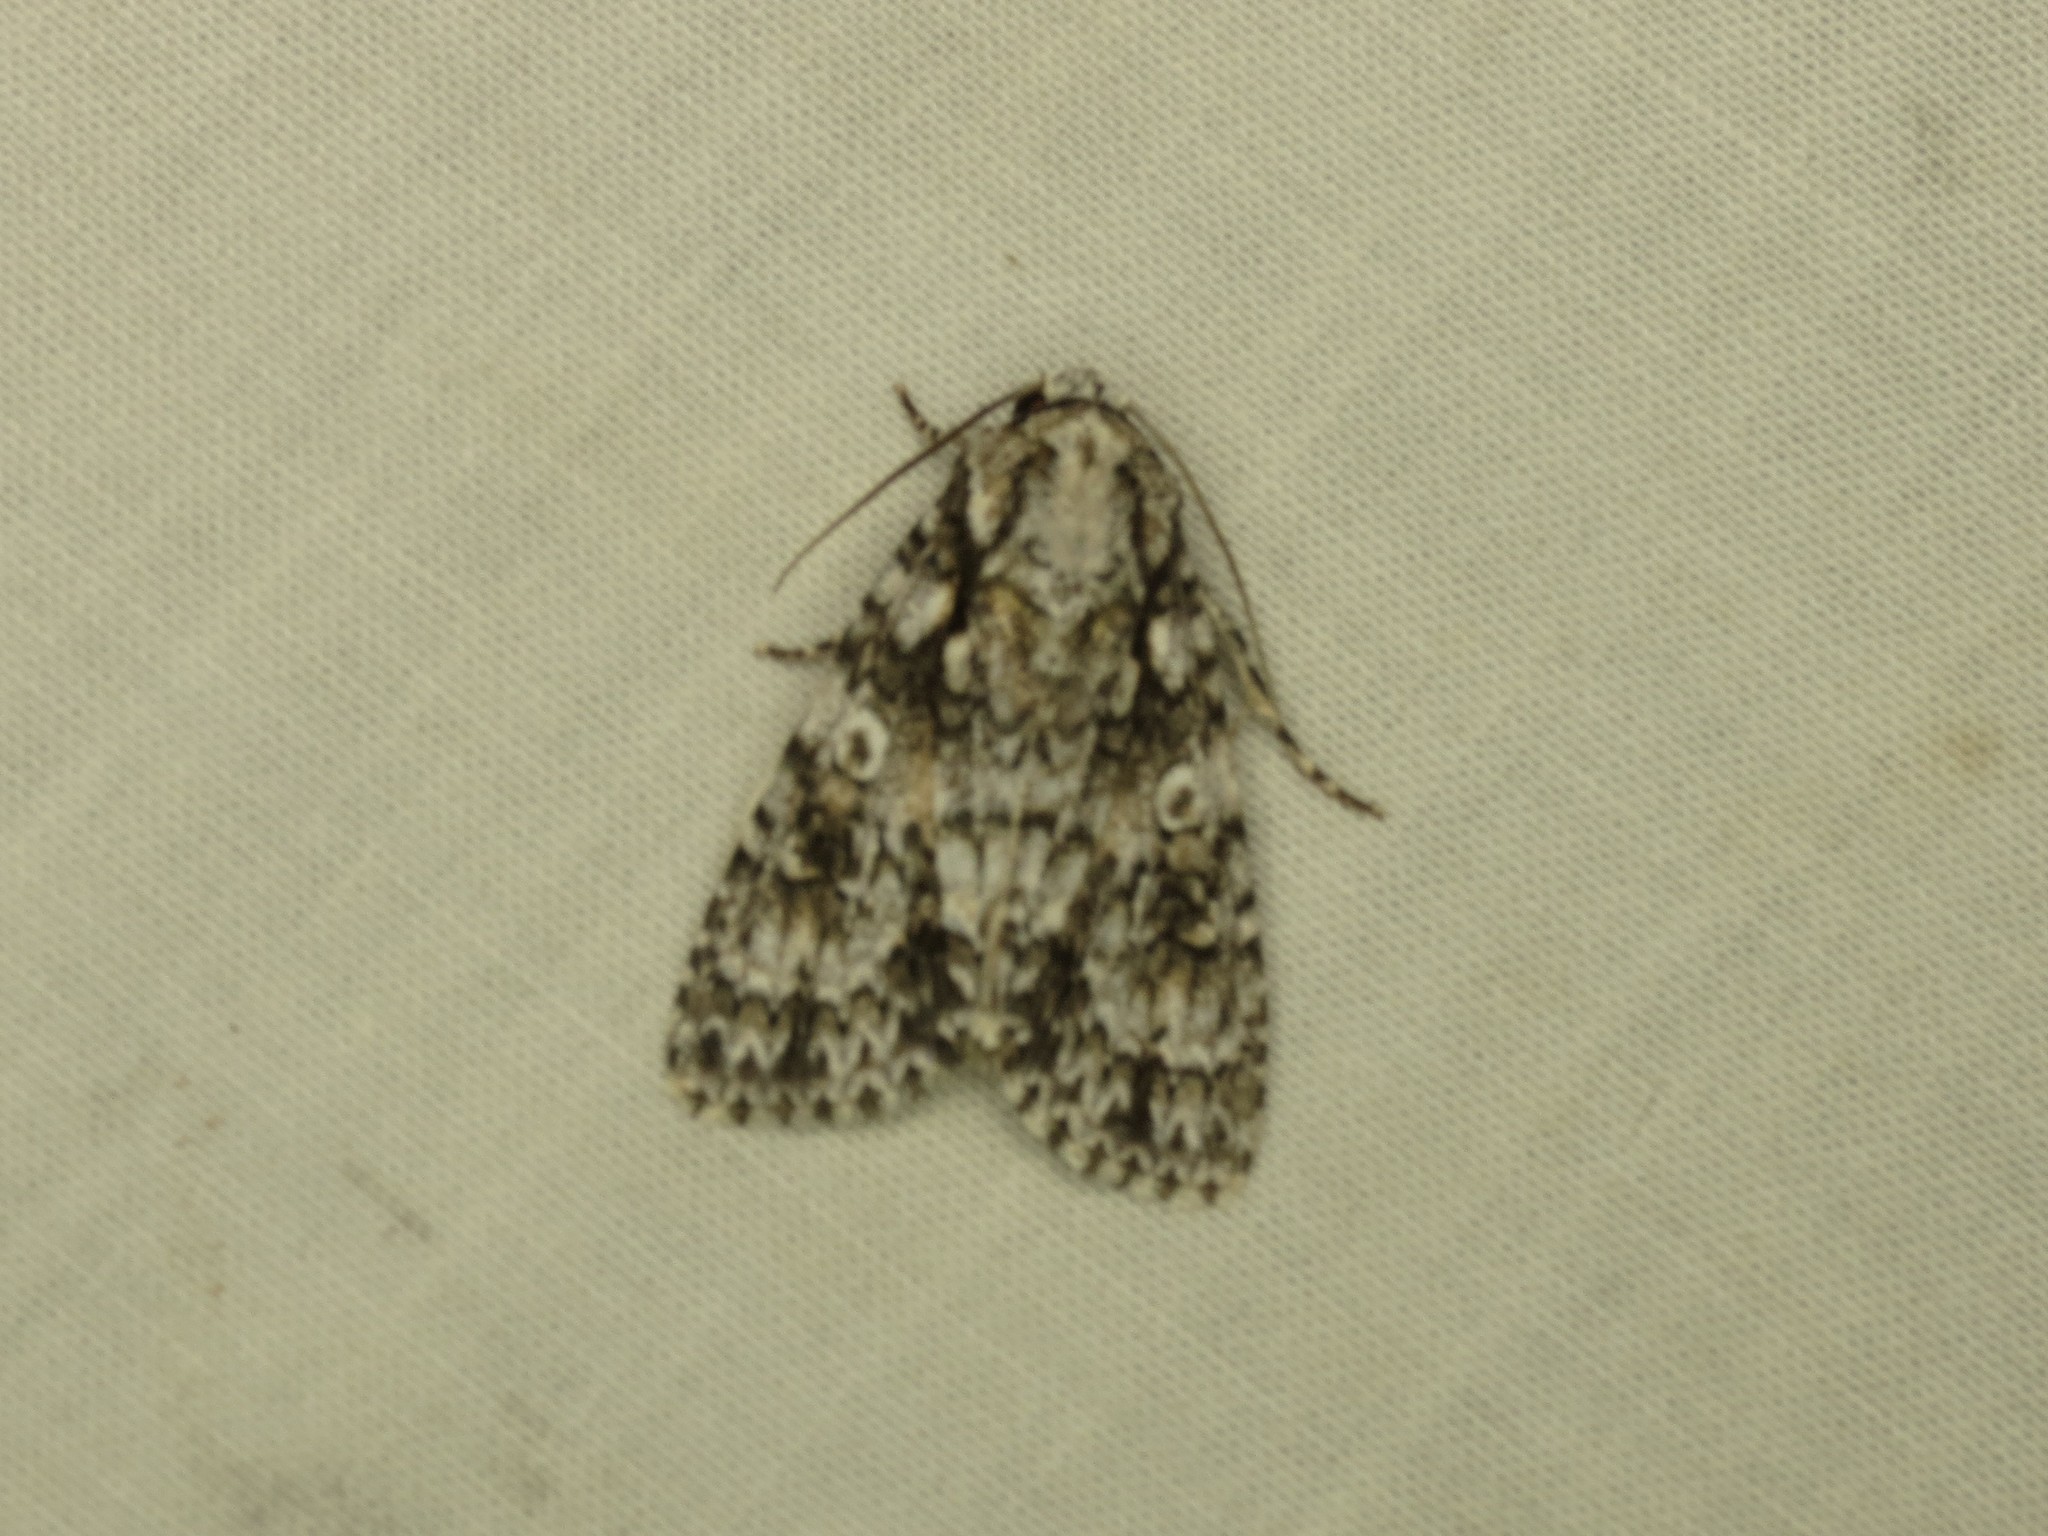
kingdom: Animalia
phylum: Arthropoda
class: Insecta
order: Lepidoptera
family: Noctuidae
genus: Acronicta
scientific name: Acronicta marmorata
